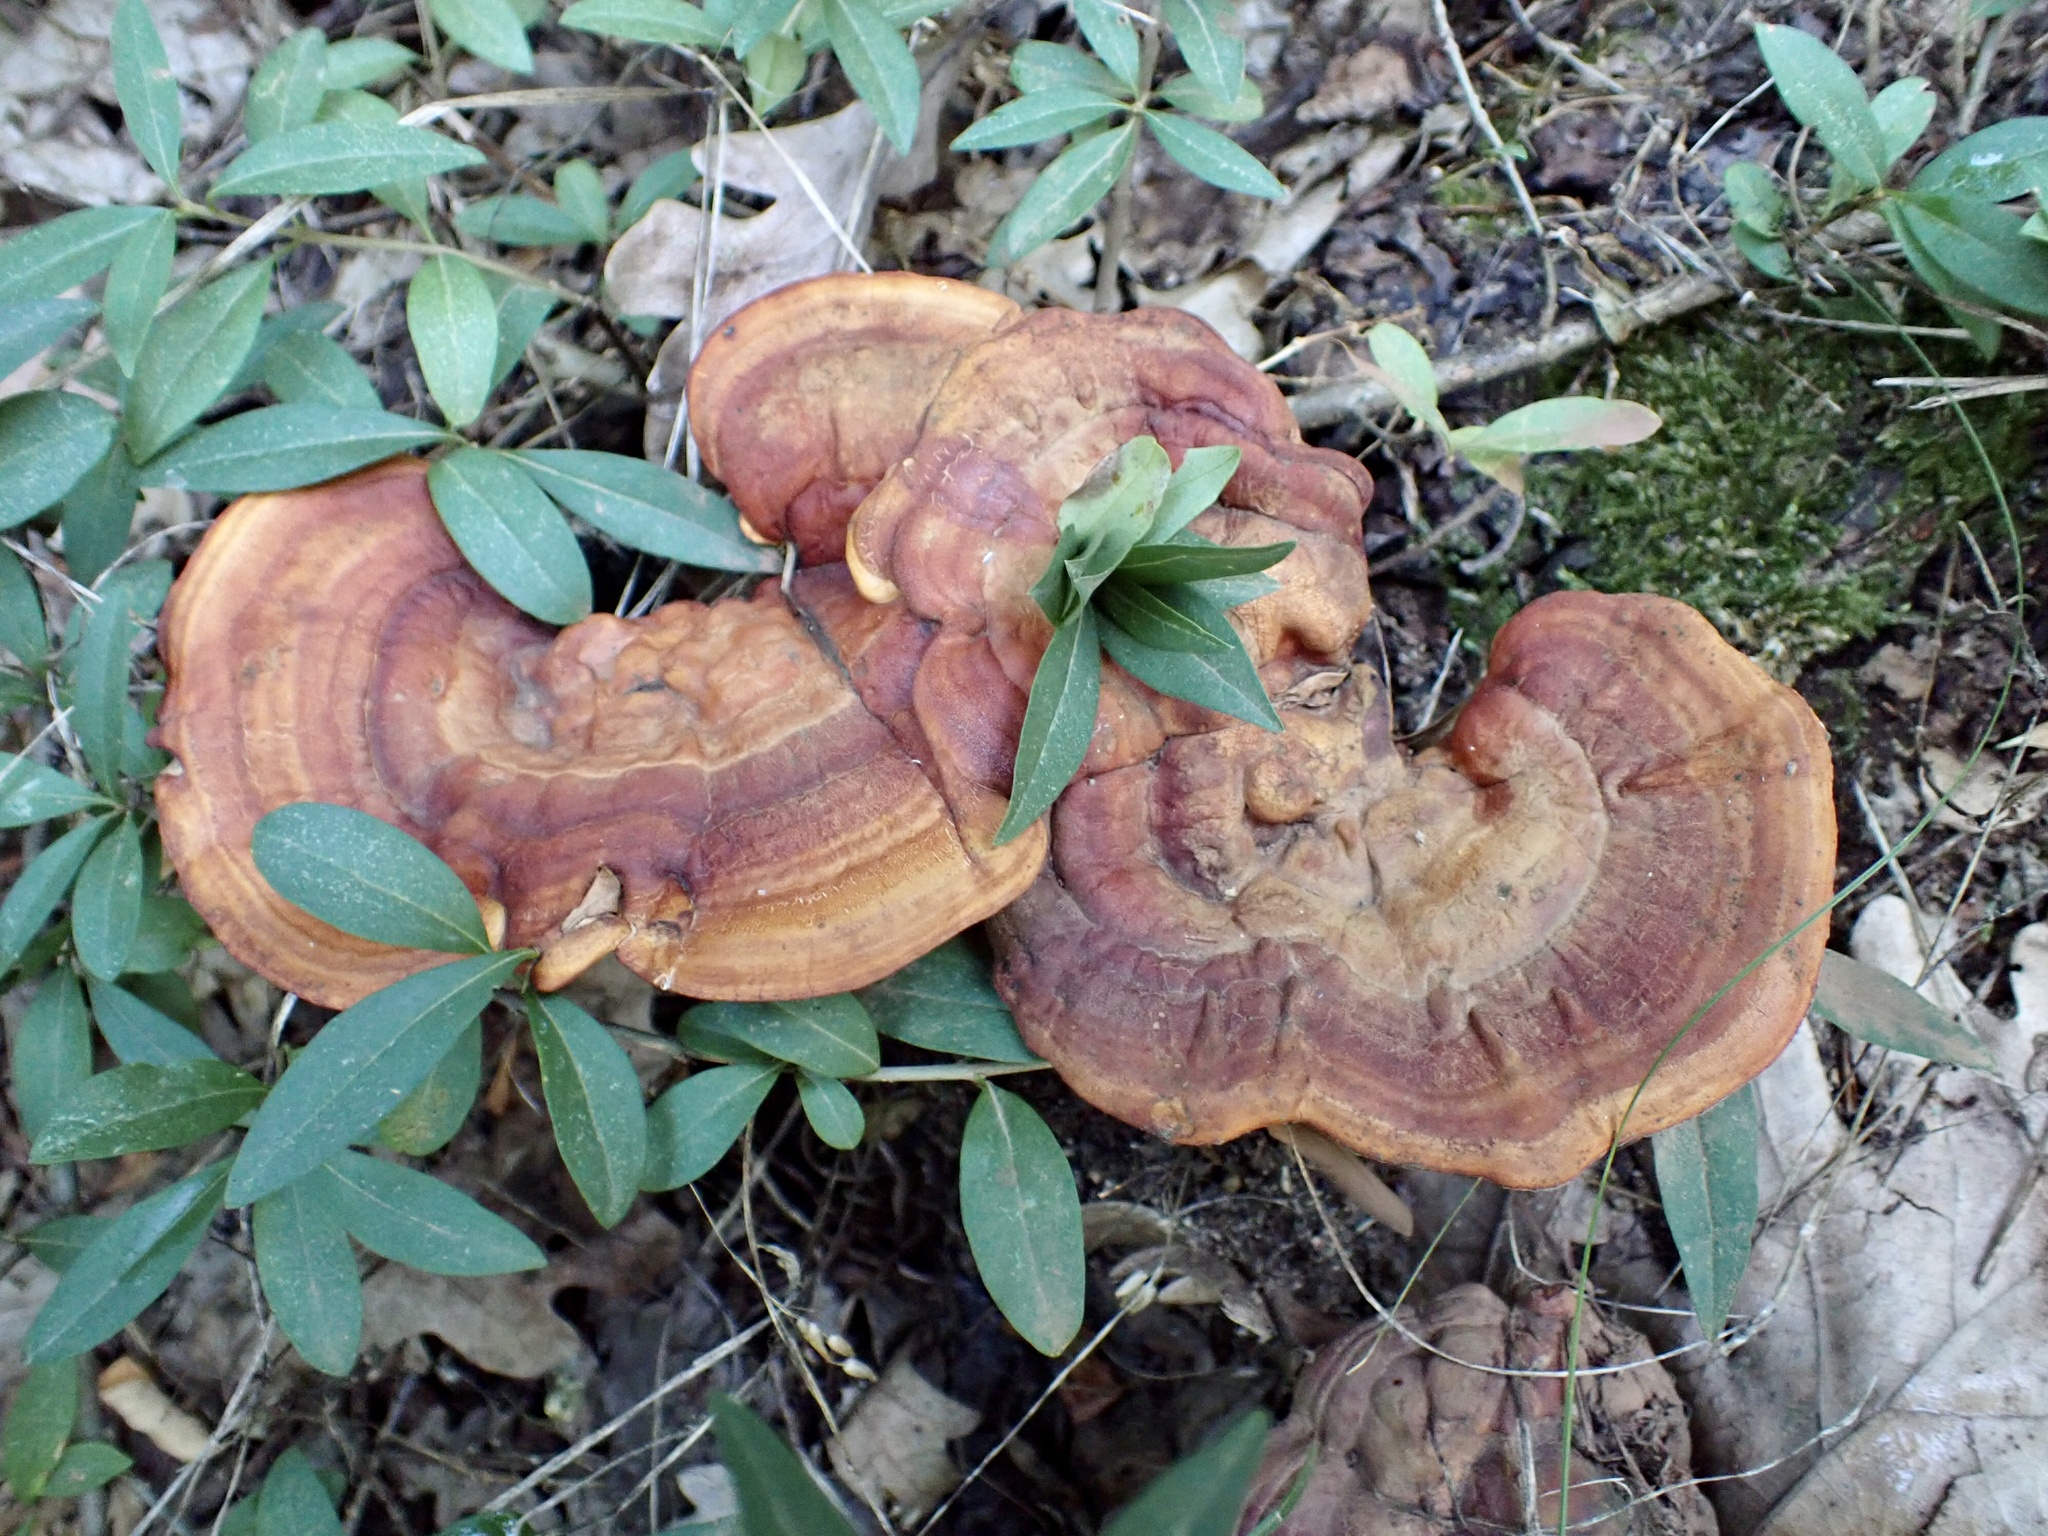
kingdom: Fungi
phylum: Basidiomycota
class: Agaricomycetes
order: Polyporales
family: Polyporaceae
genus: Ganoderma
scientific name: Ganoderma lucidum
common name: Lacquered bracket
